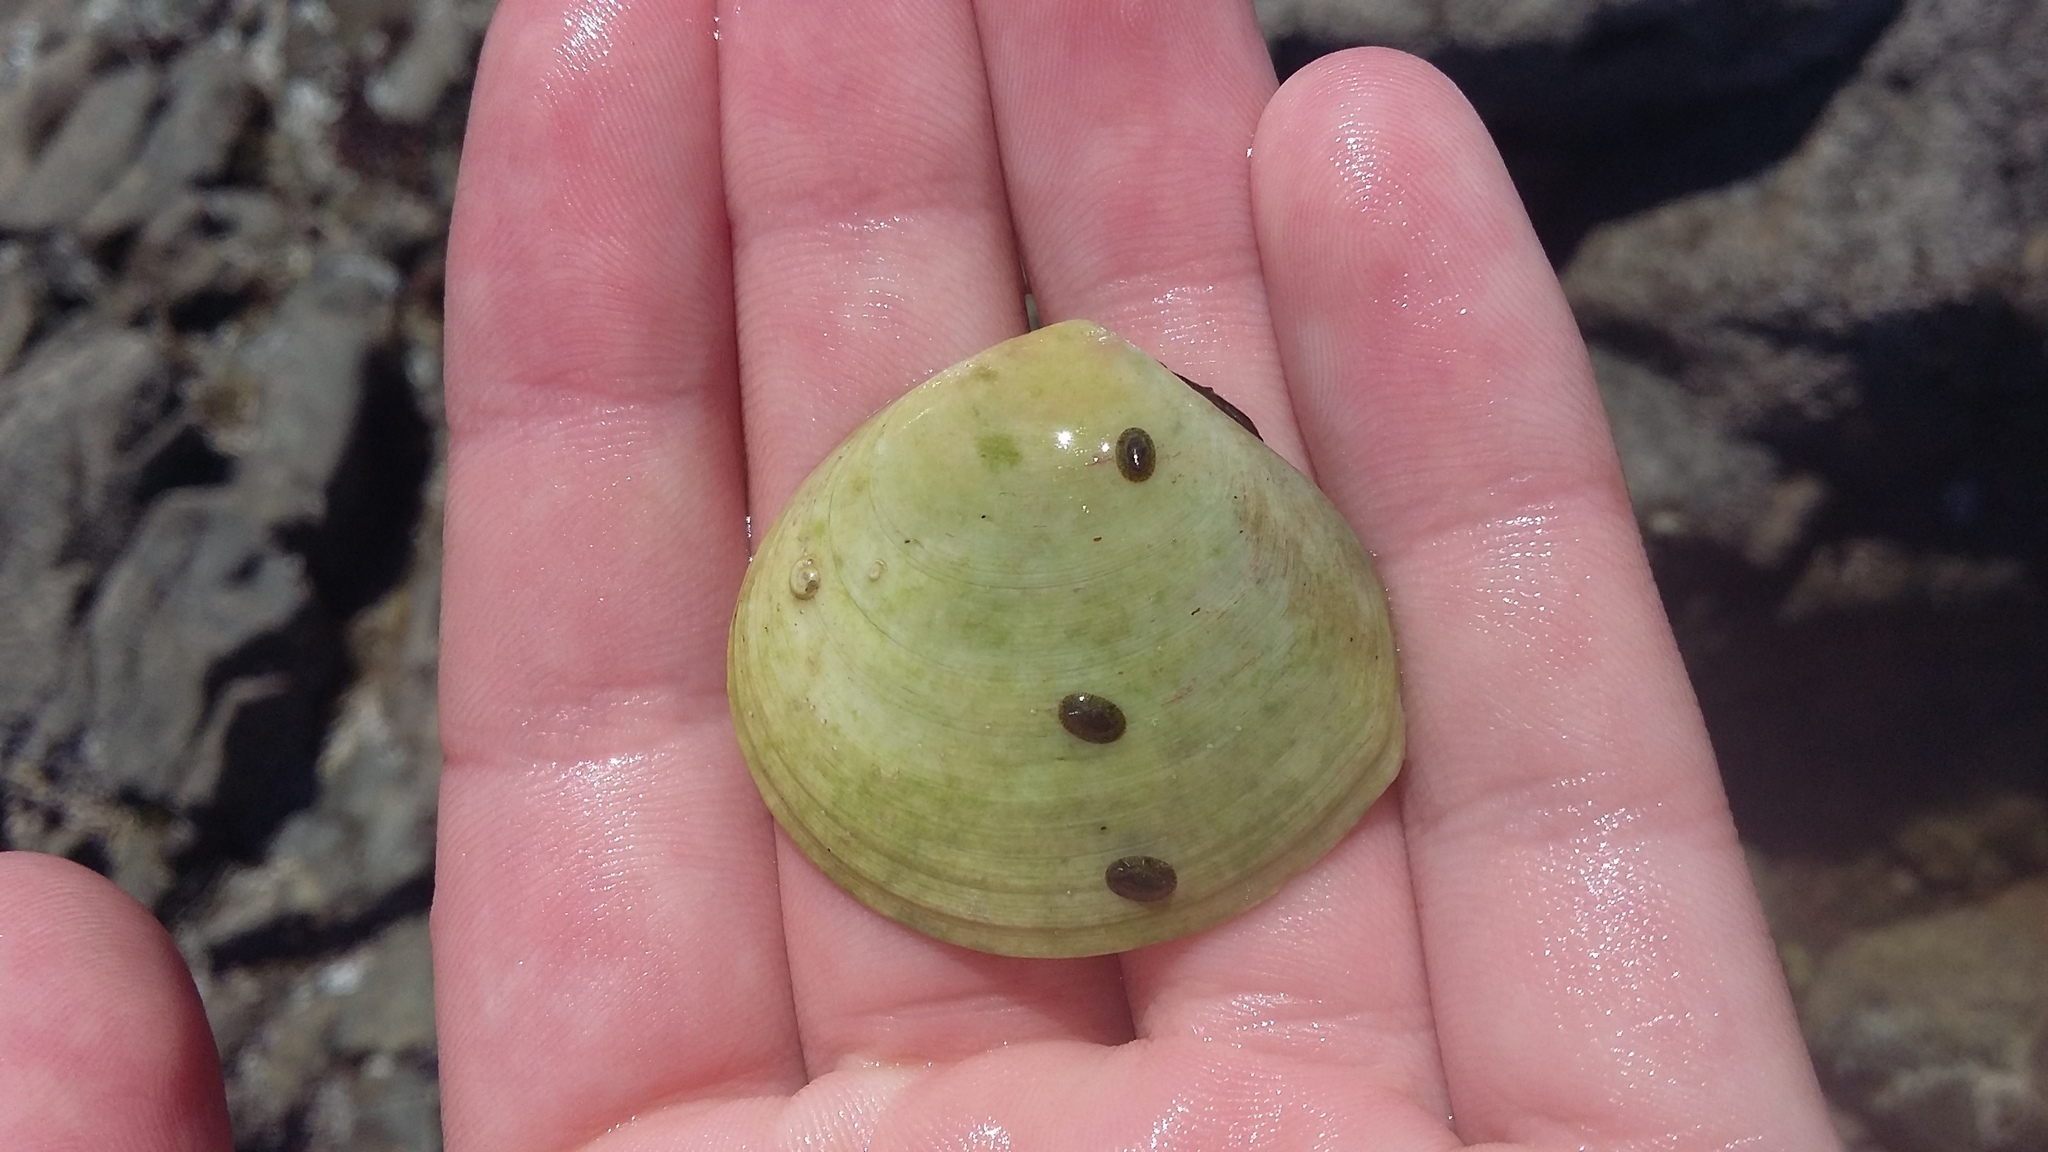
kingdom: Animalia
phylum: Mollusca
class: Bivalvia
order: Cardiida
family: Tellinidae
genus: Pseudarcopagia
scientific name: Pseudarcopagia disculus
